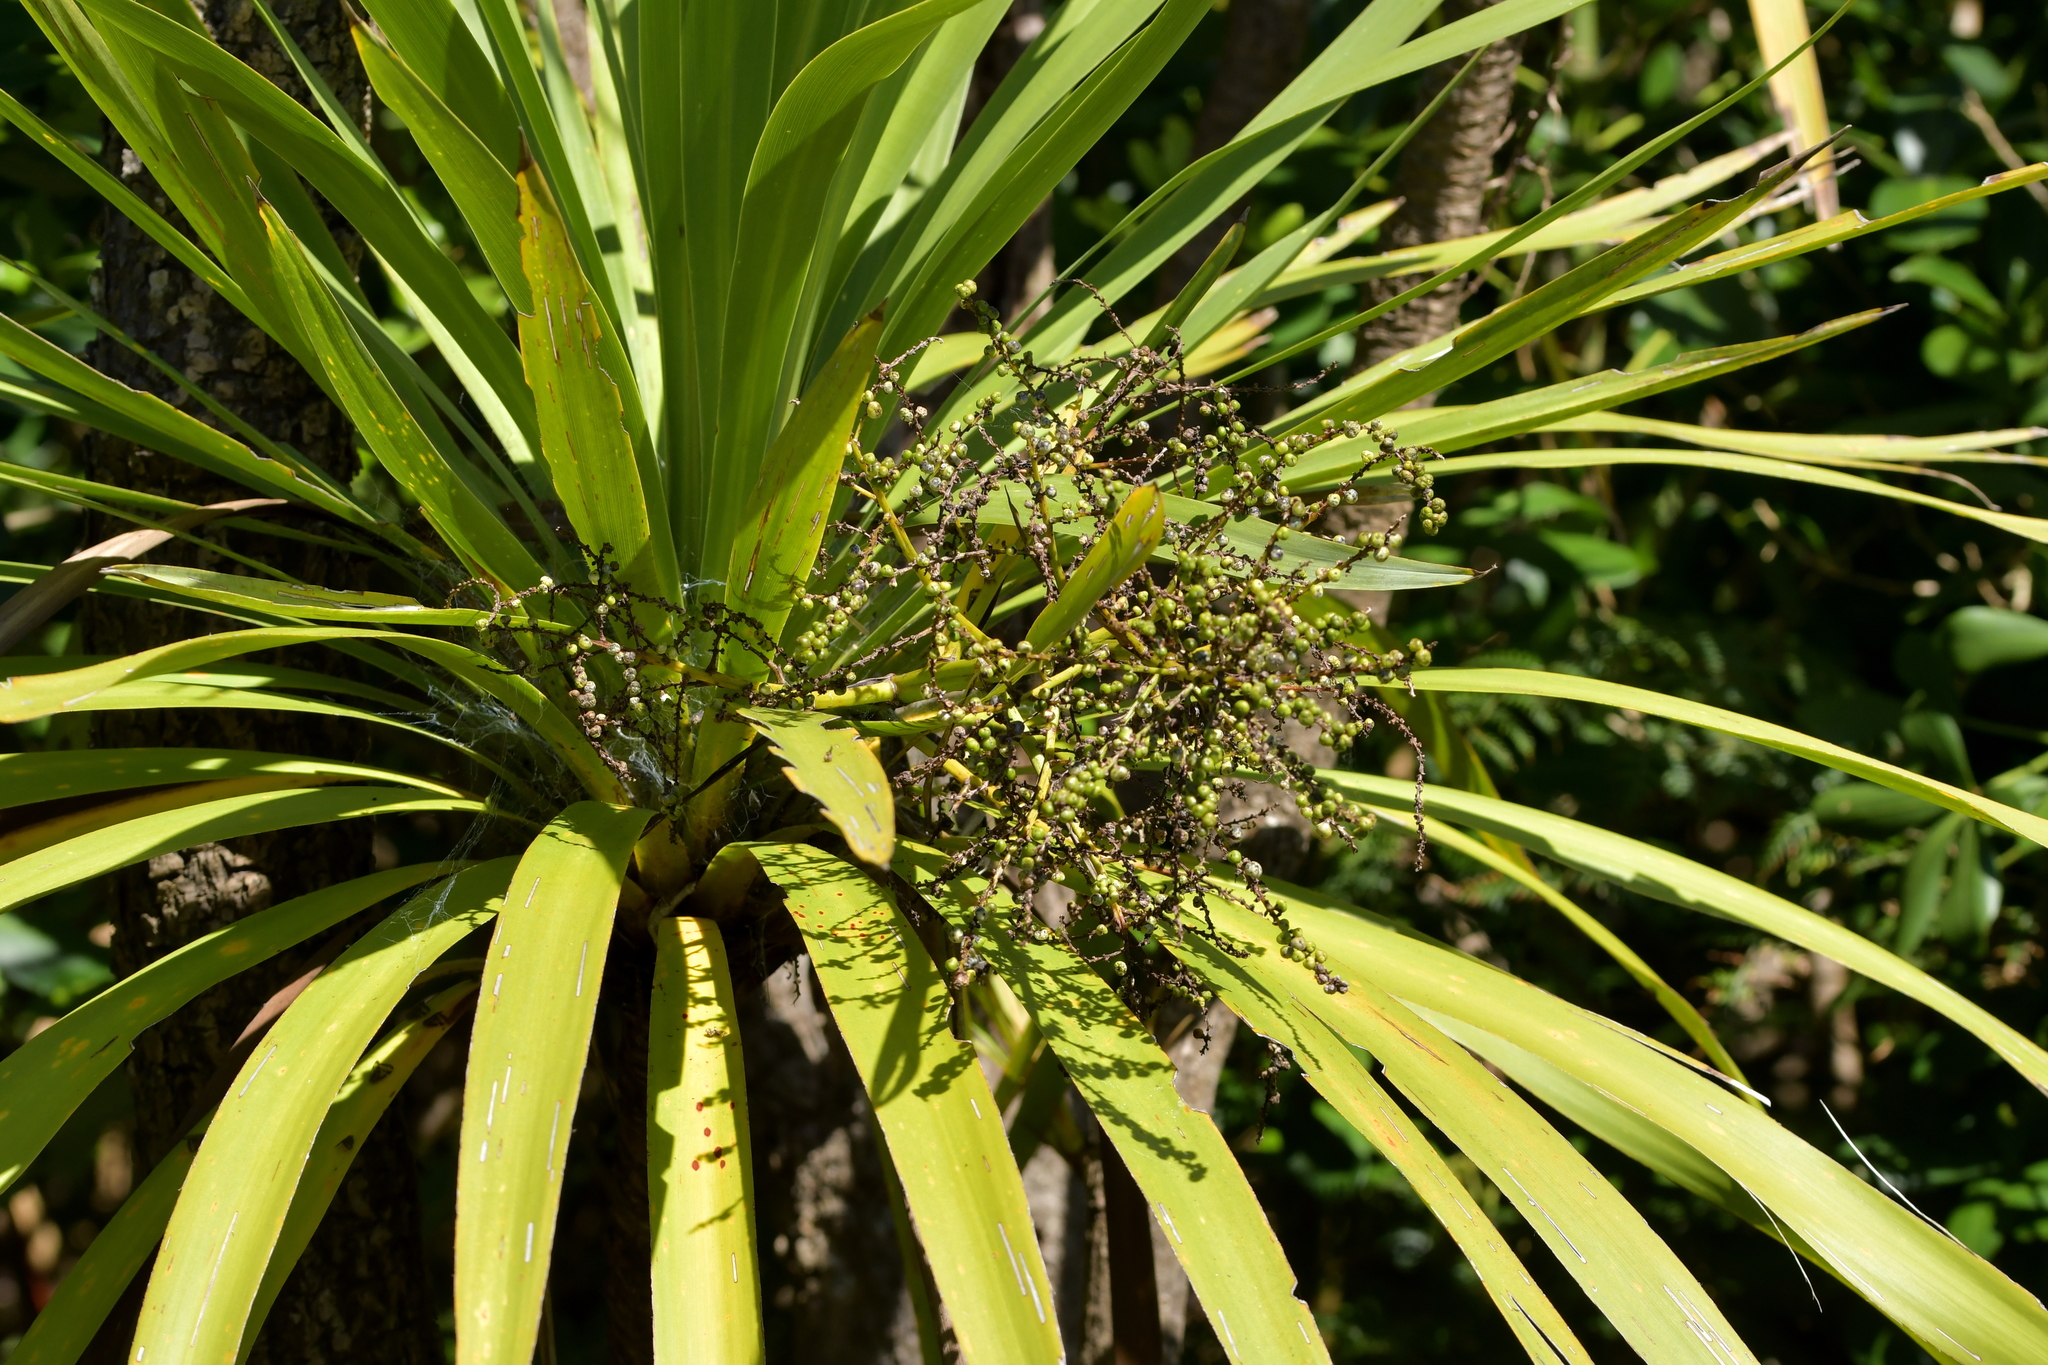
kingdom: Plantae
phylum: Tracheophyta
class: Liliopsida
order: Asparagales
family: Asparagaceae
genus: Cordyline
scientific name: Cordyline australis
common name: Cabbage-palm
